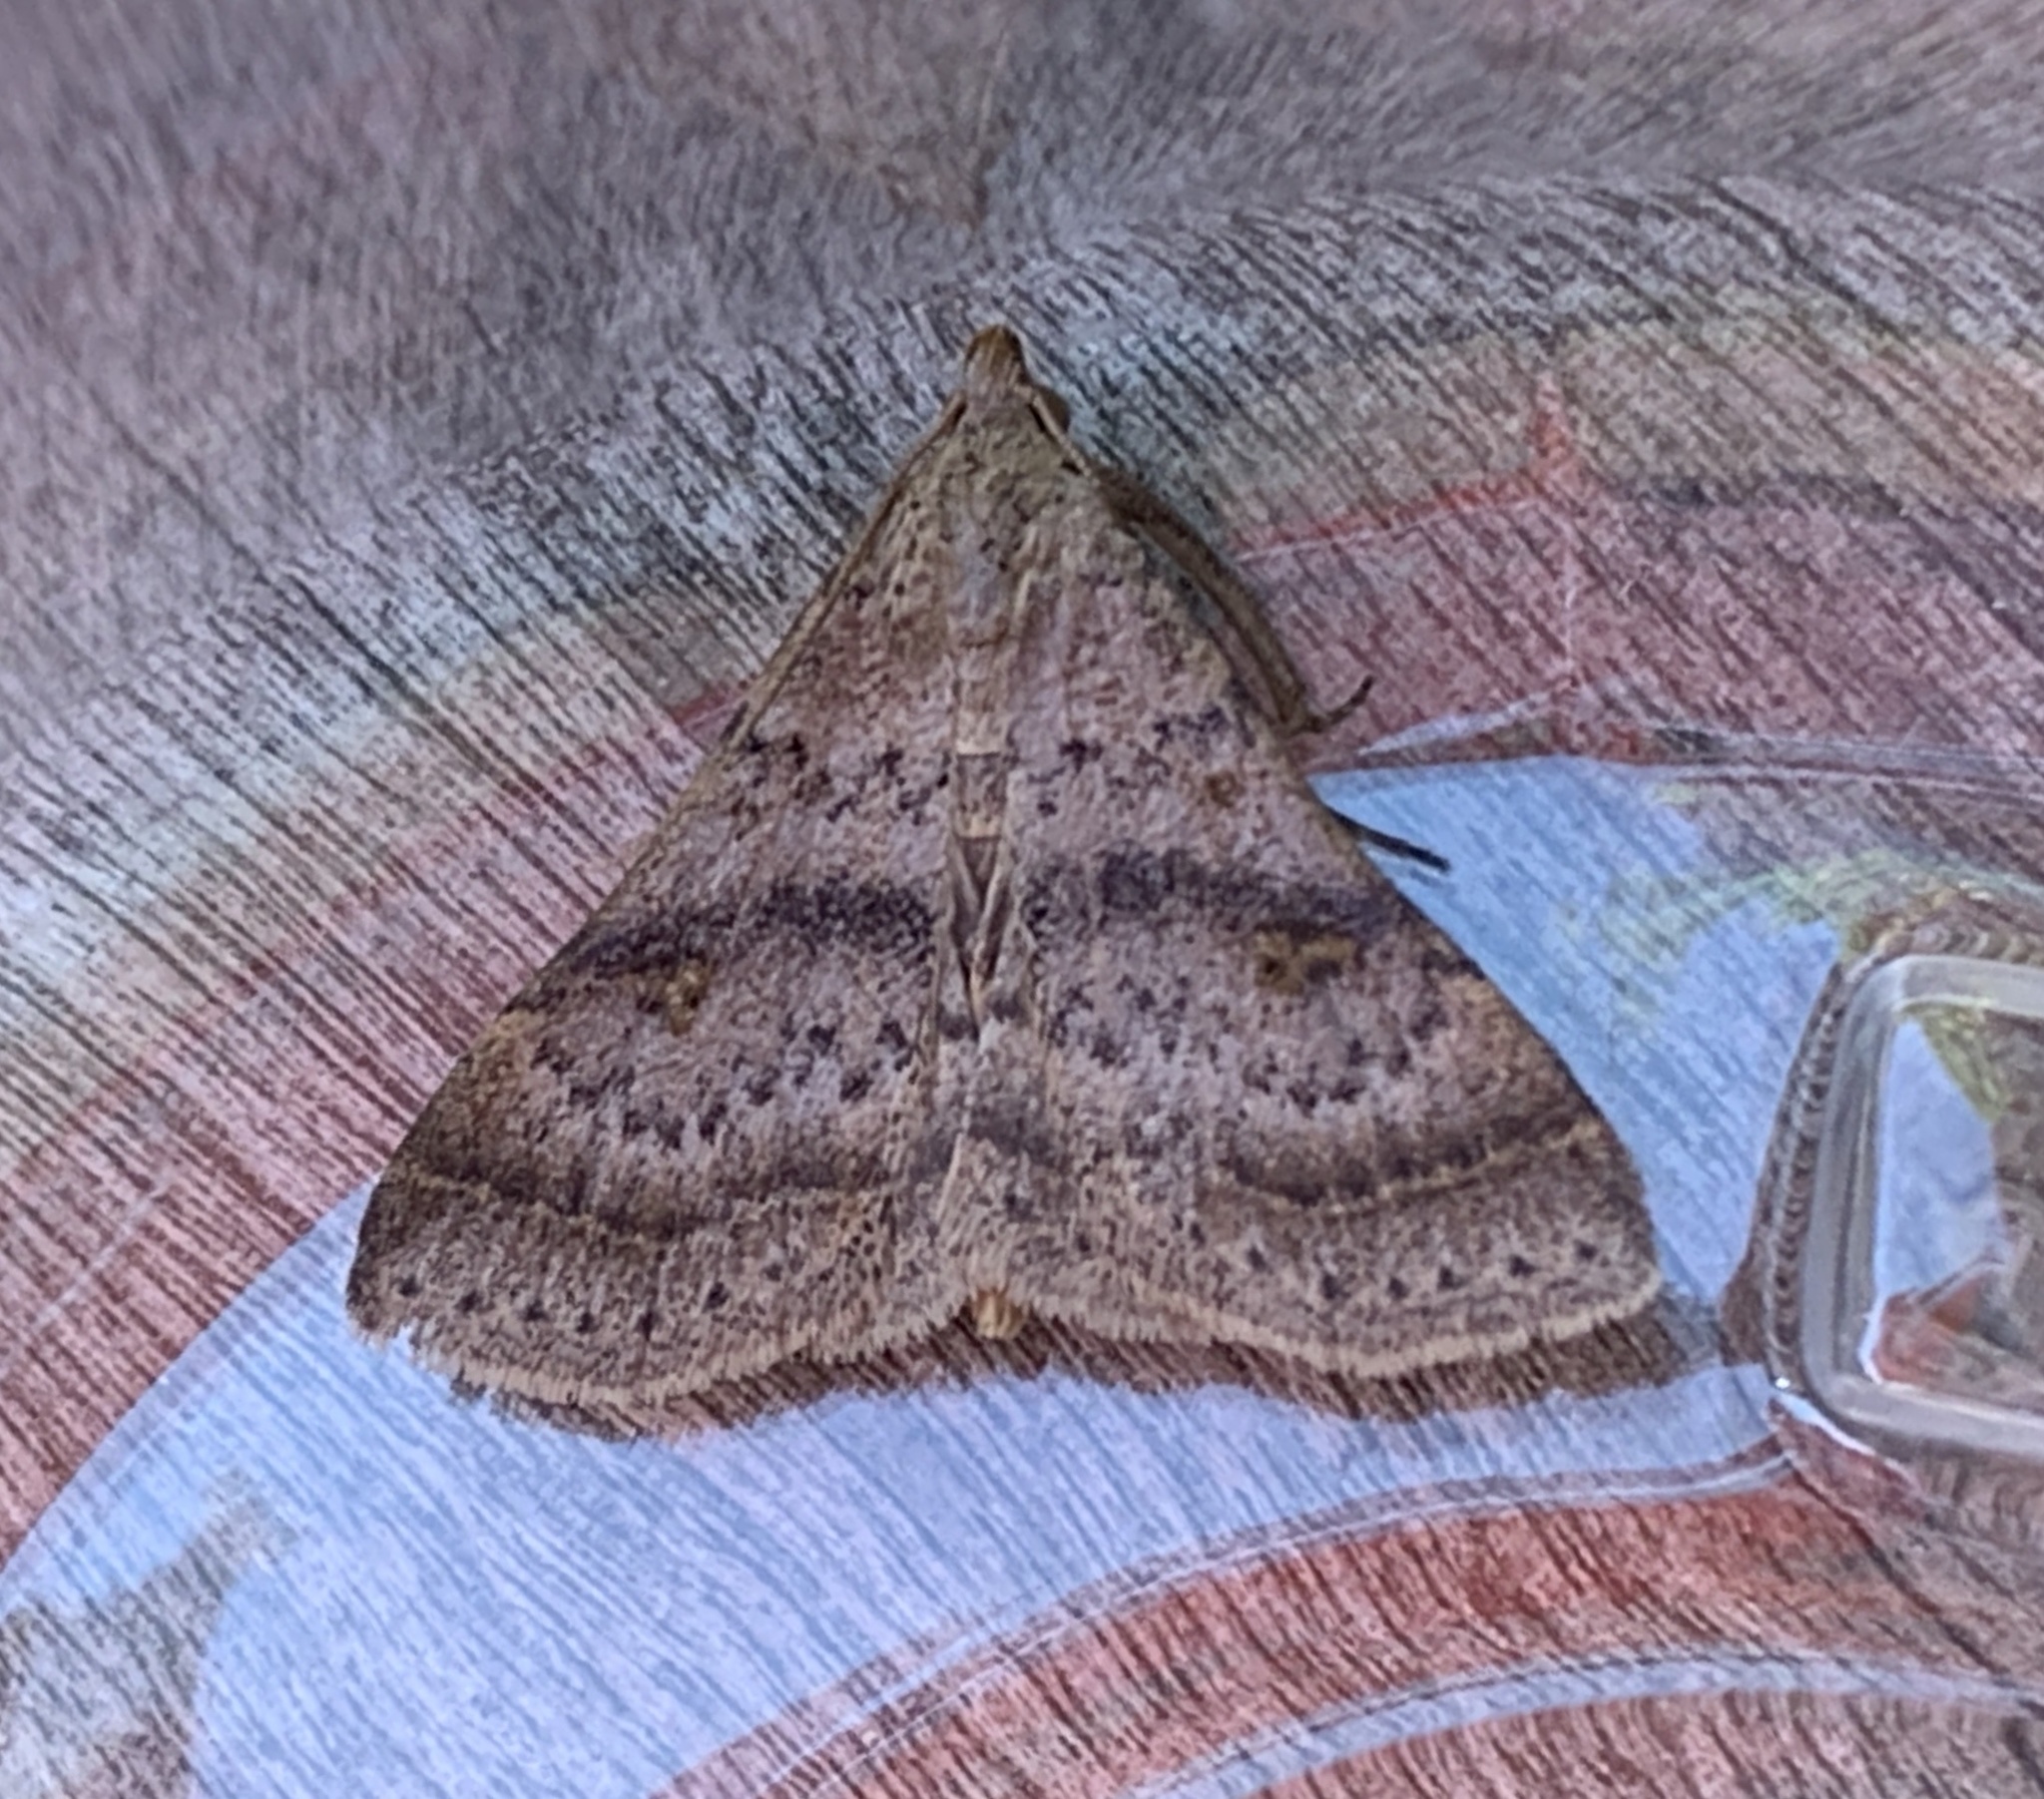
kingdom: Animalia
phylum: Arthropoda
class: Insecta
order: Lepidoptera
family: Erebidae
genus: Bleptina
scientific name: Bleptina caradrinalis
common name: Bent-winged owlet
